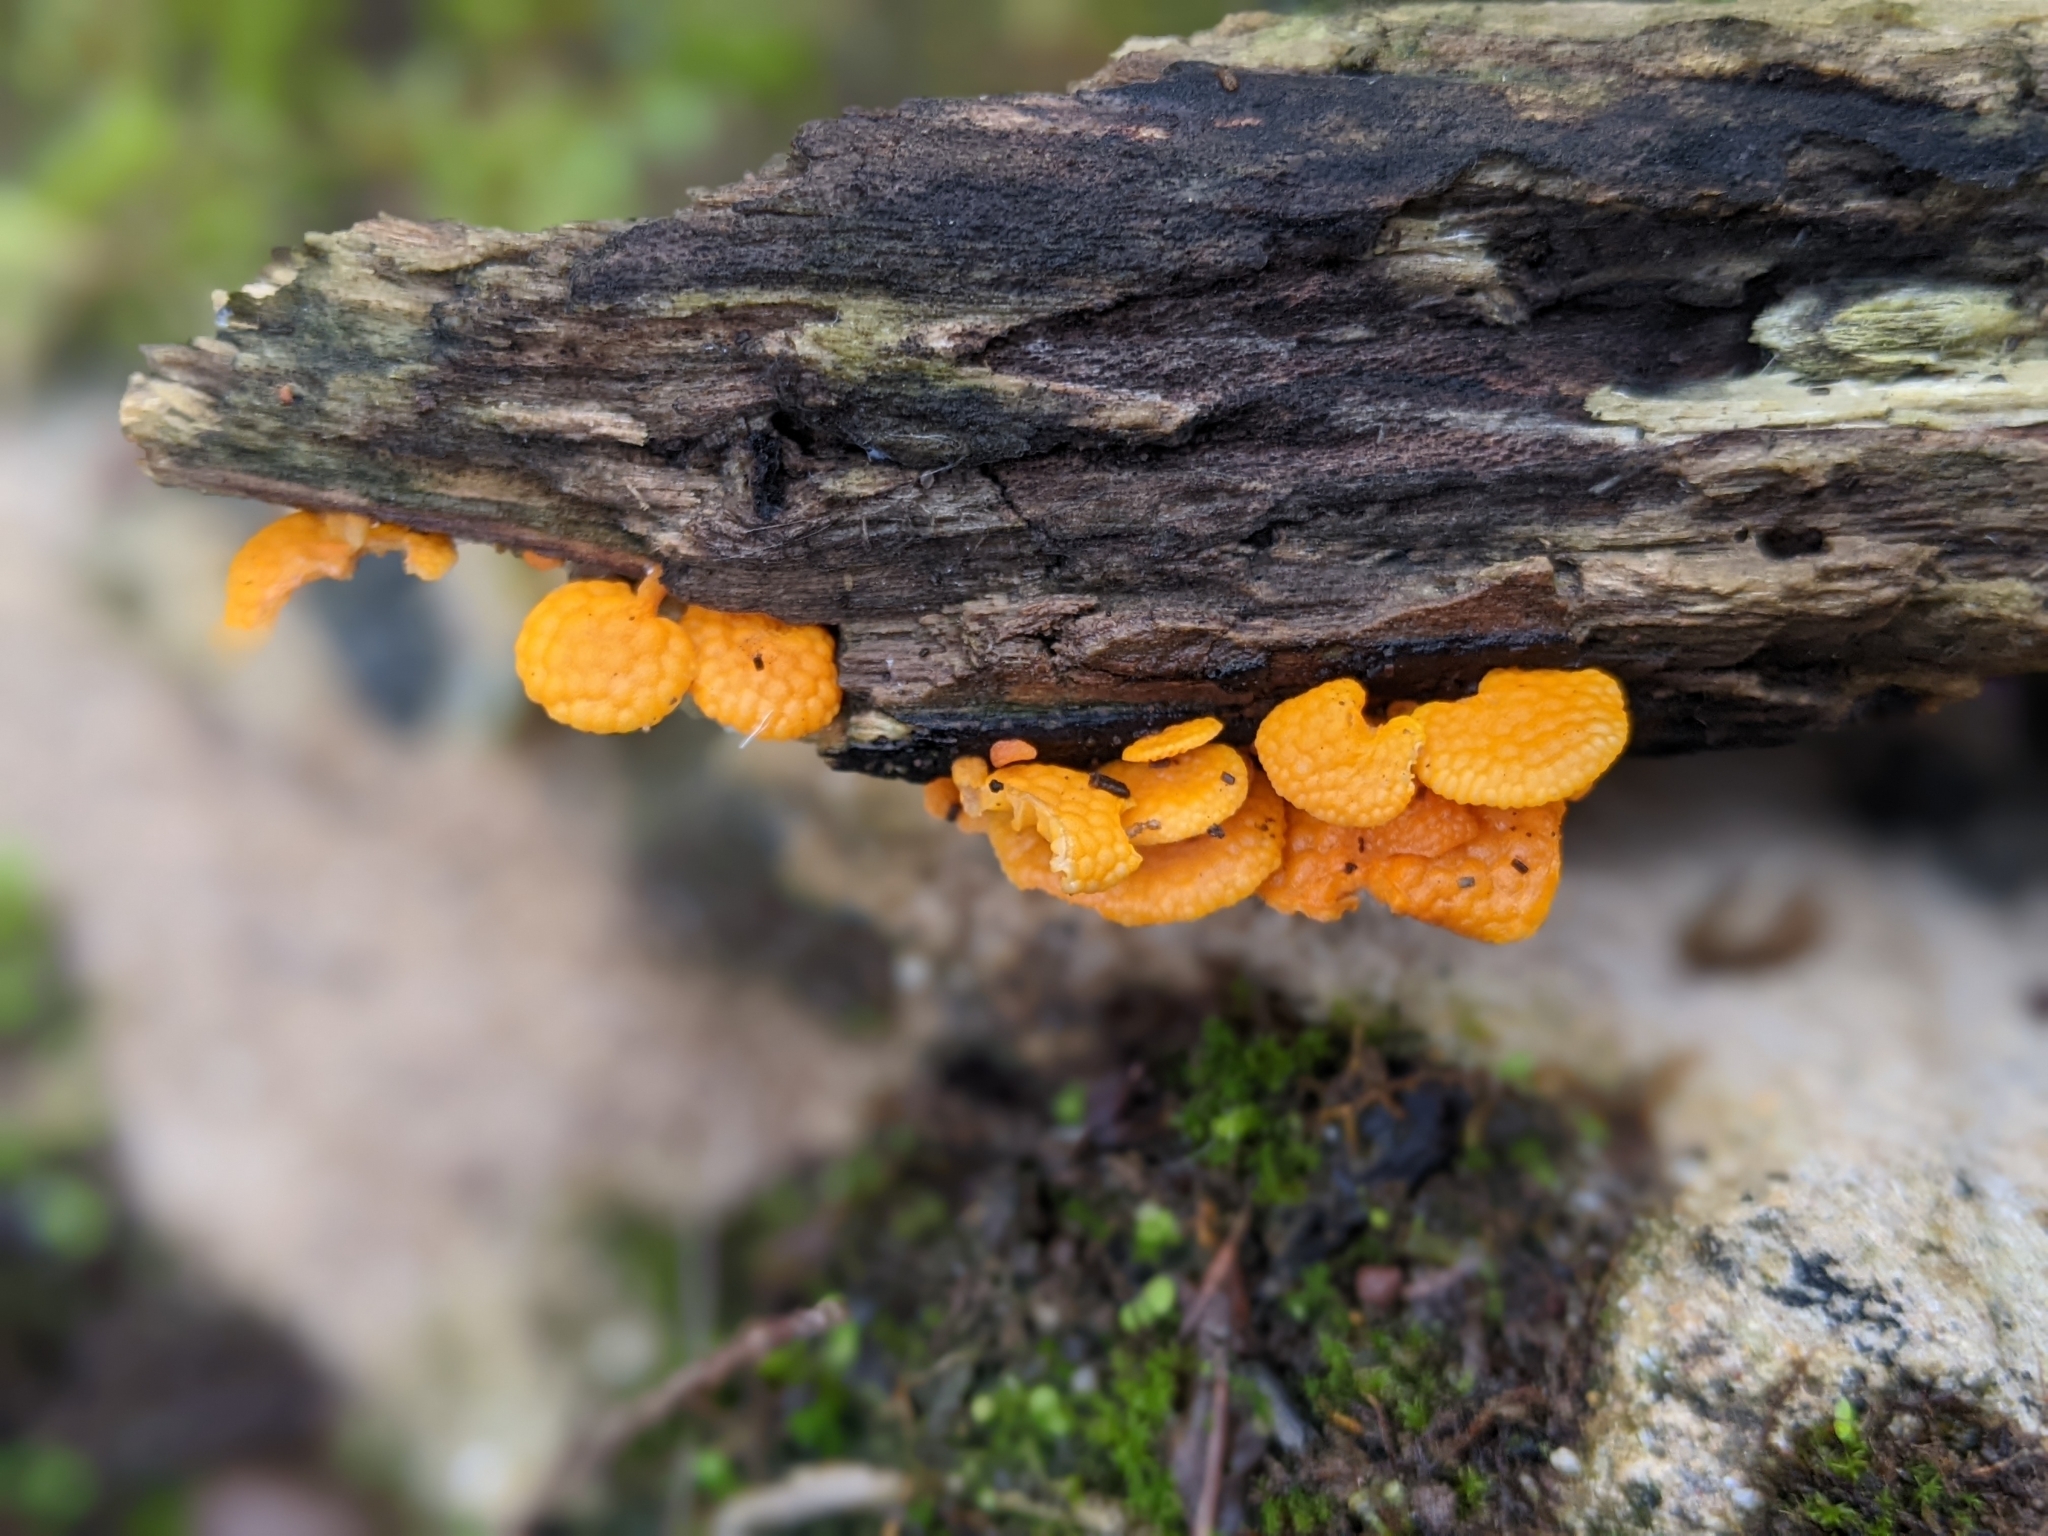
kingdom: Fungi
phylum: Basidiomycota
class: Agaricomycetes
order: Agaricales
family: Mycenaceae
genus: Favolaschia
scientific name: Favolaschia claudopus
